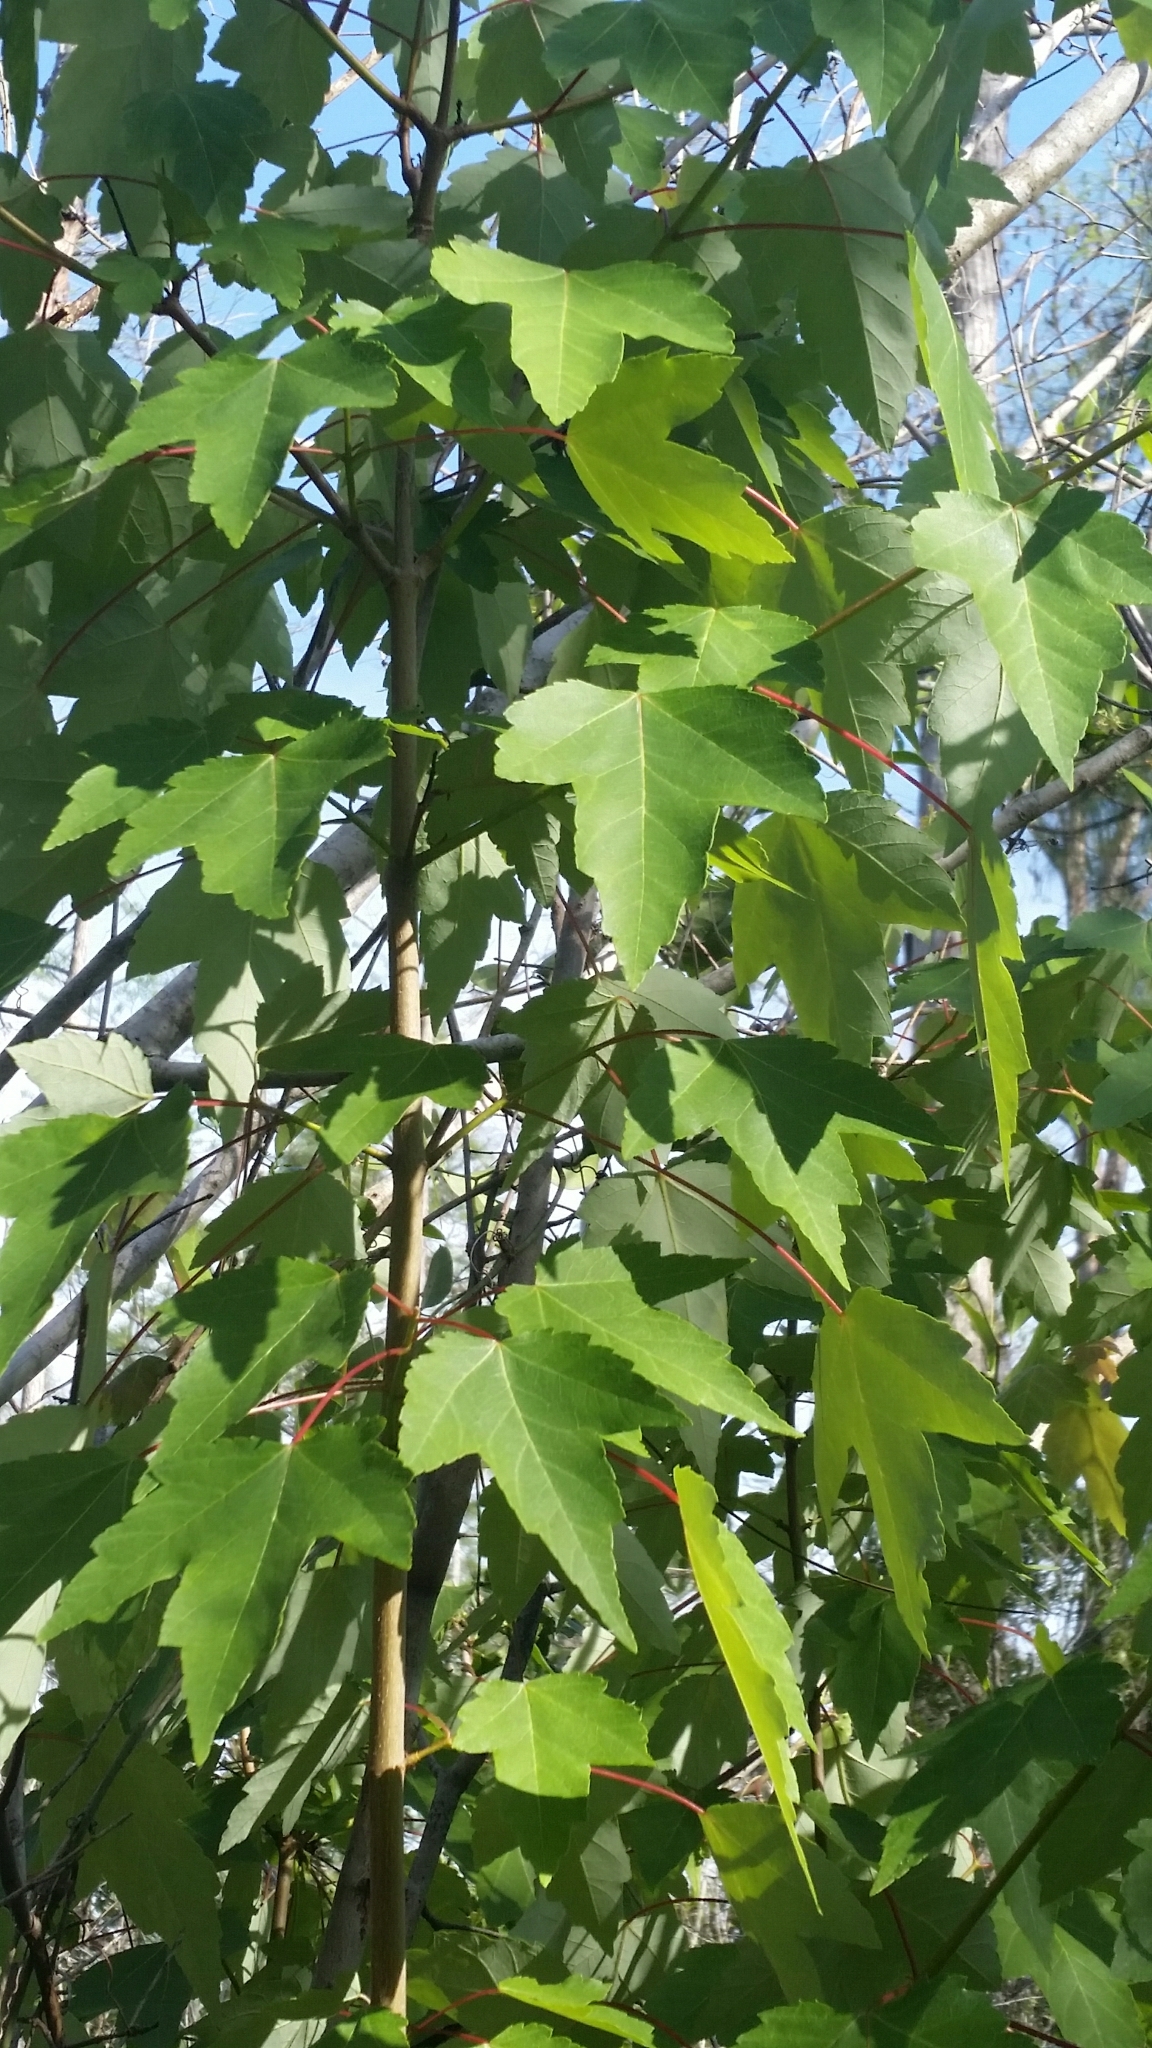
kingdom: Plantae
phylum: Tracheophyta
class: Magnoliopsida
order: Sapindales
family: Sapindaceae
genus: Acer
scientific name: Acer rubrum
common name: Red maple
